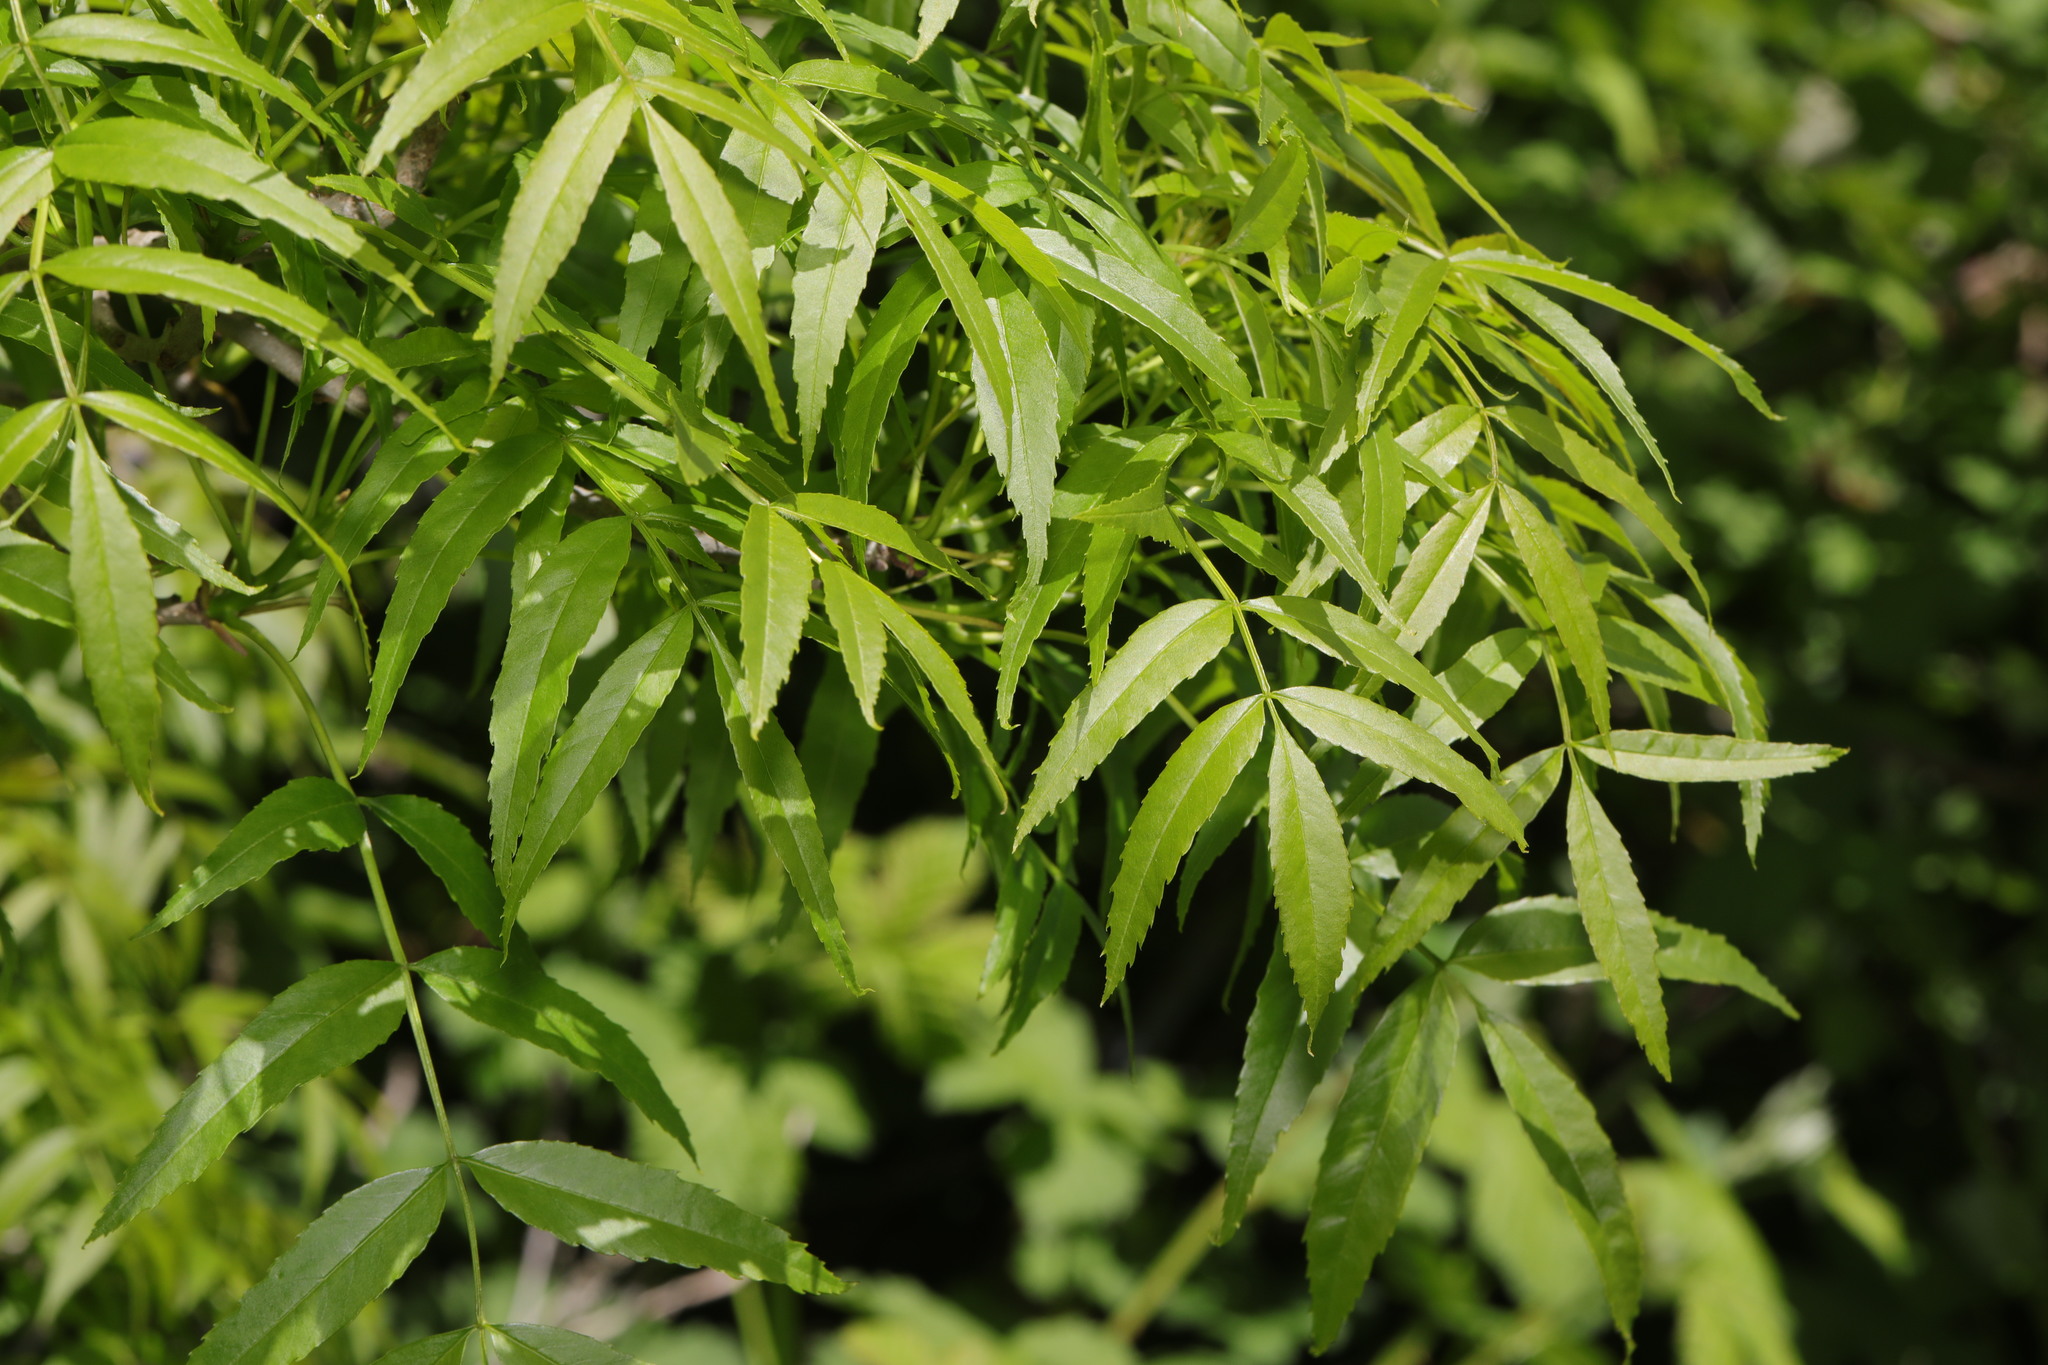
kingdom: Plantae
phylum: Tracheophyta
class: Magnoliopsida
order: Lamiales
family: Oleaceae
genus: Fraxinus
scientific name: Fraxinus angustifolia
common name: Narrow-leafed ash
